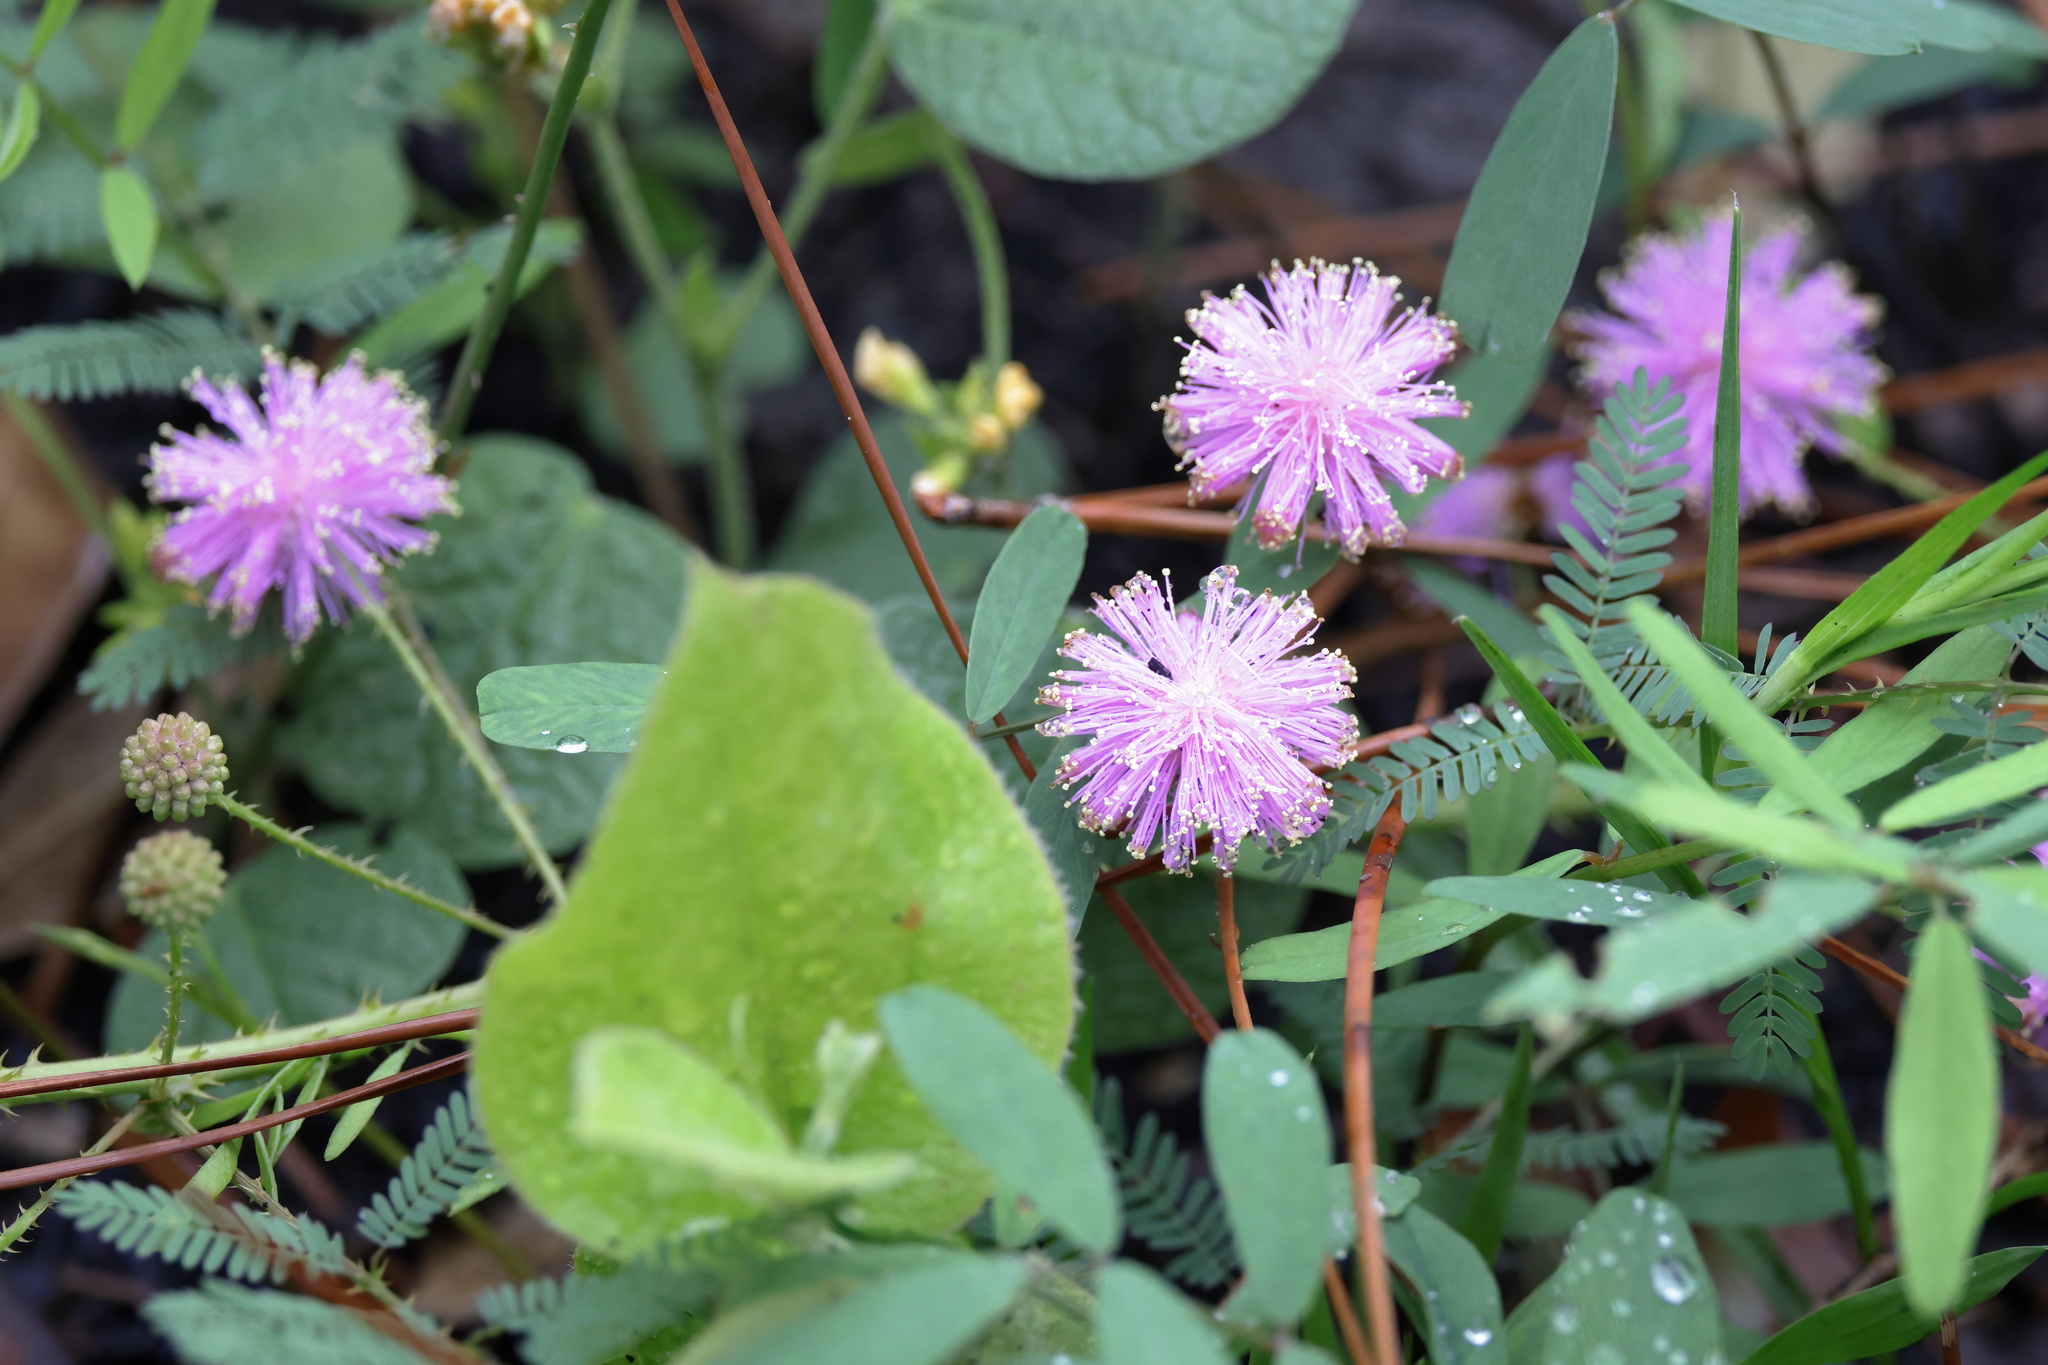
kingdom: Plantae
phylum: Tracheophyta
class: Magnoliopsida
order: Fabales
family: Fabaceae
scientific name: Fabaceae
